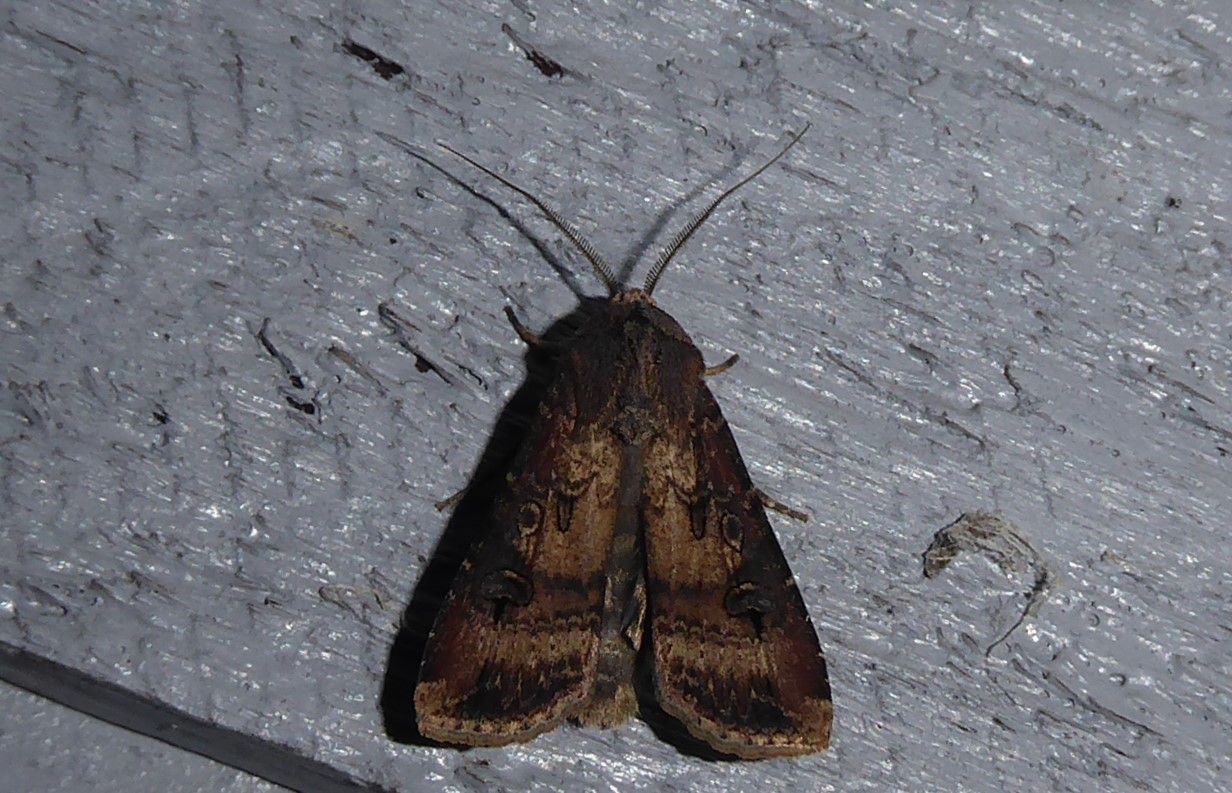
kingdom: Animalia
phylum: Arthropoda
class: Insecta
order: Lepidoptera
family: Noctuidae
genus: Agrotis
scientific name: Agrotis ipsilon
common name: Dark sword-grass
